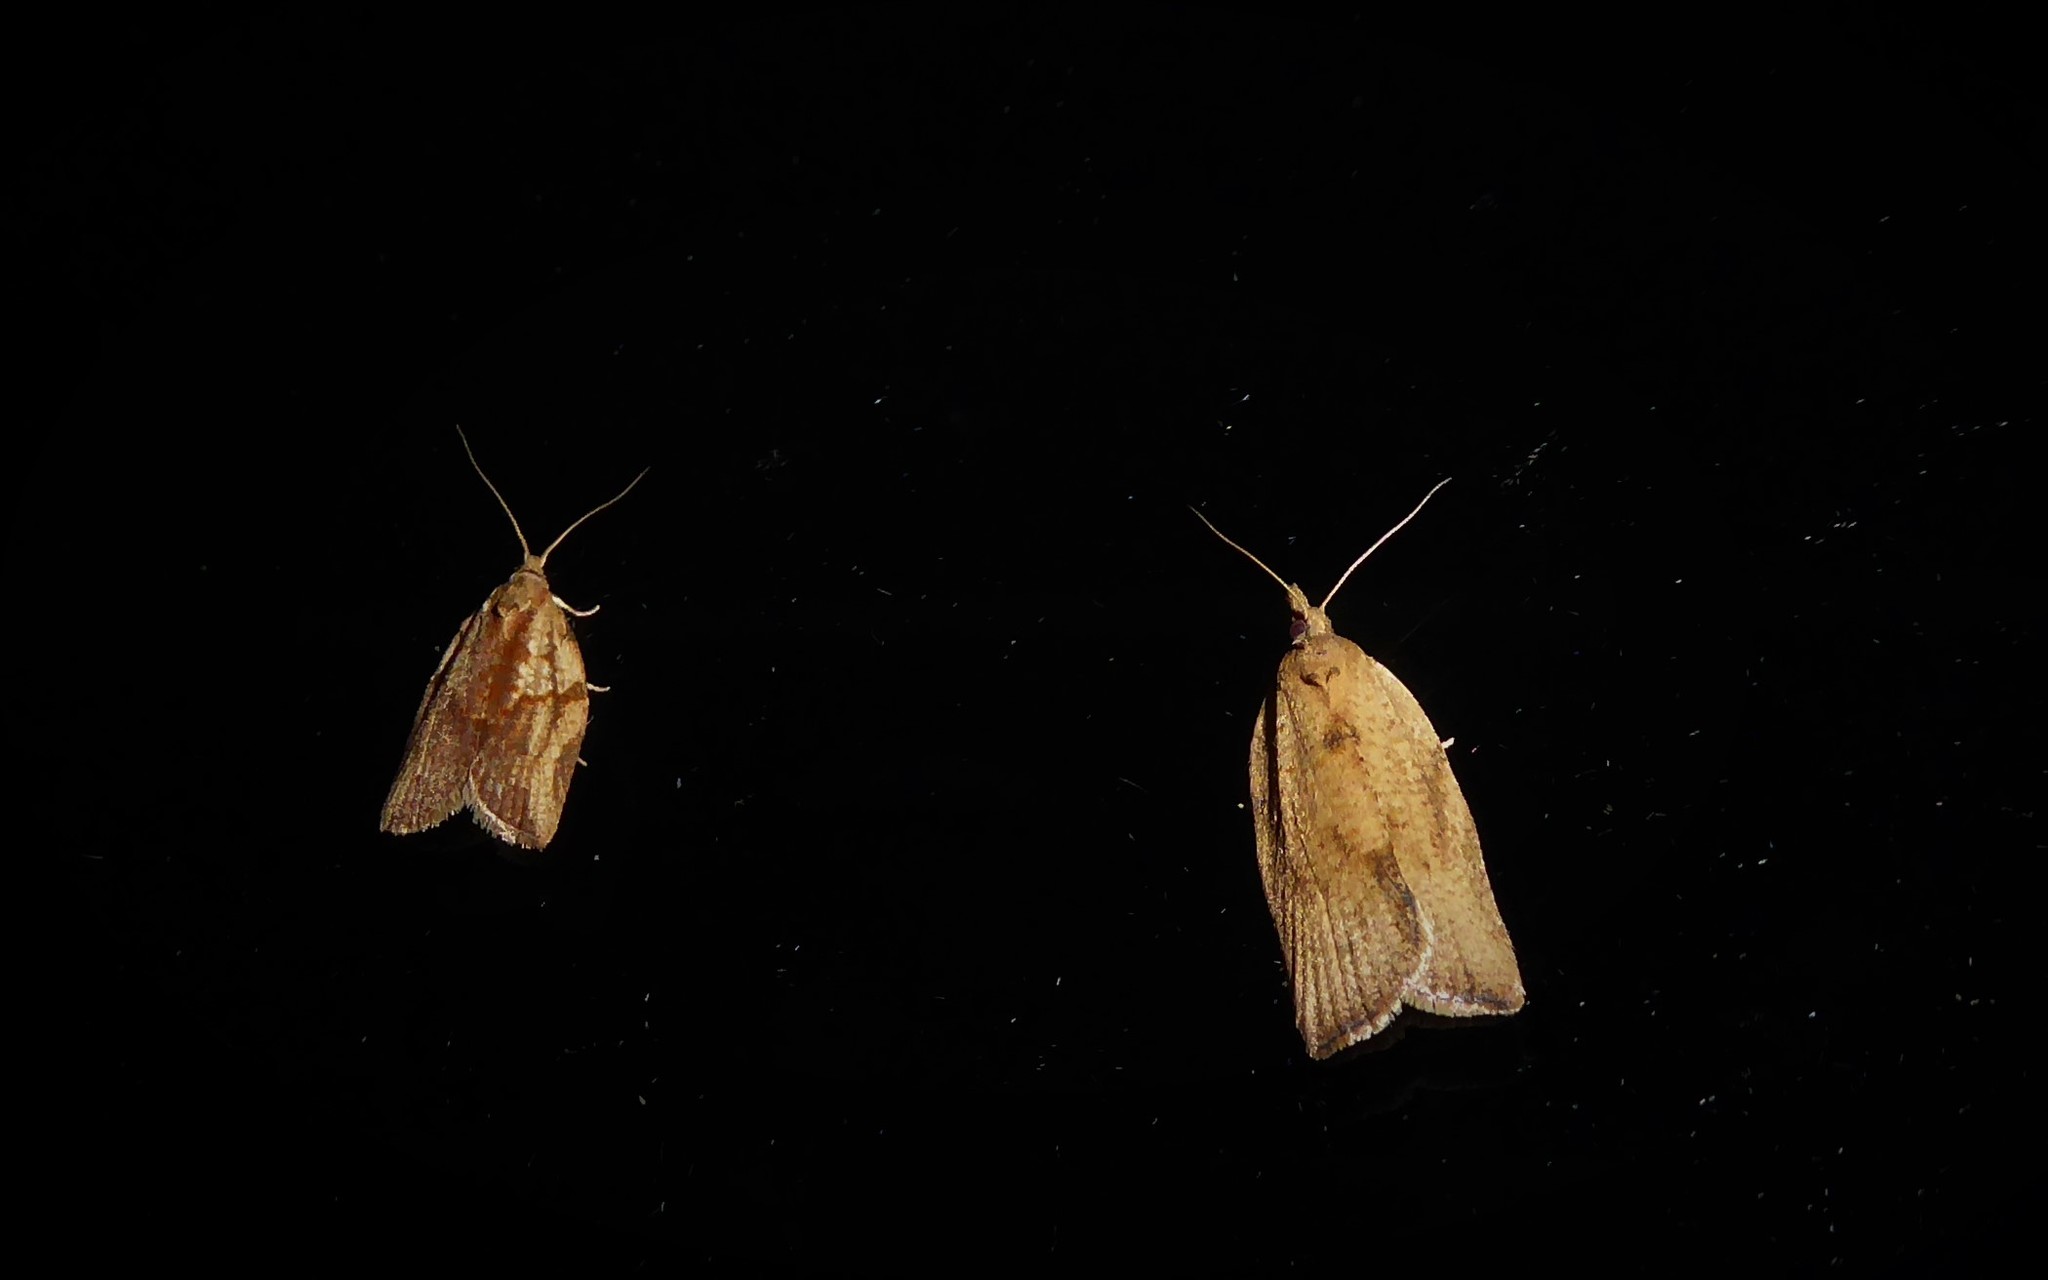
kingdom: Animalia
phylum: Arthropoda
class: Insecta
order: Lepidoptera
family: Tortricidae
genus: Epiphyas
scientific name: Epiphyas postvittana
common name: Light brown apple moth
